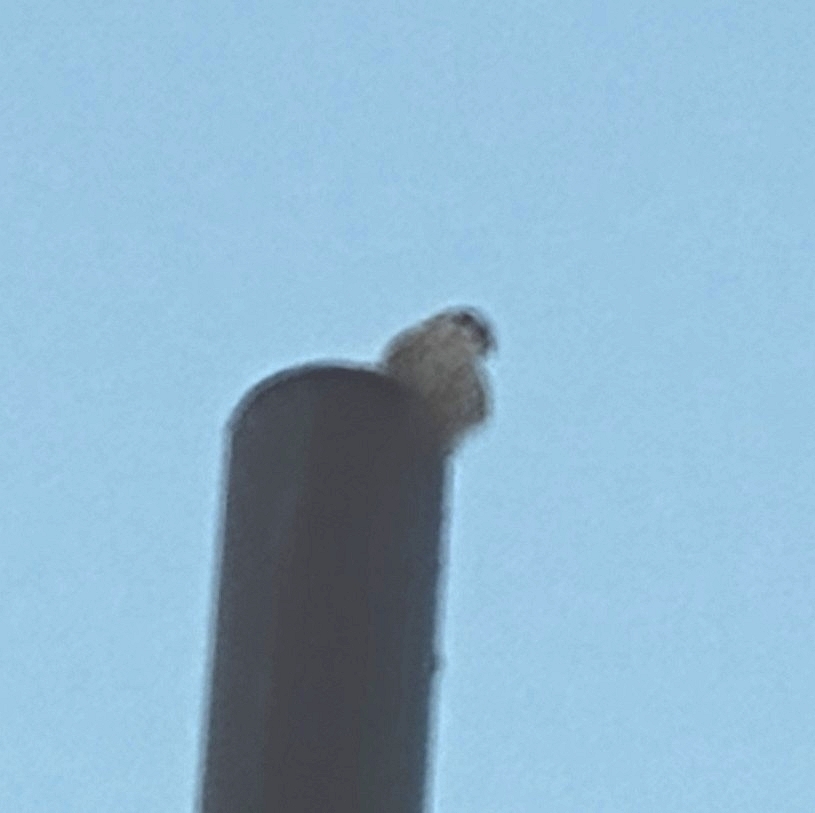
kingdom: Animalia
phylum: Chordata
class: Aves
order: Falconiformes
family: Falconidae
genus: Falco
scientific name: Falco sparverius
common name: American kestrel
